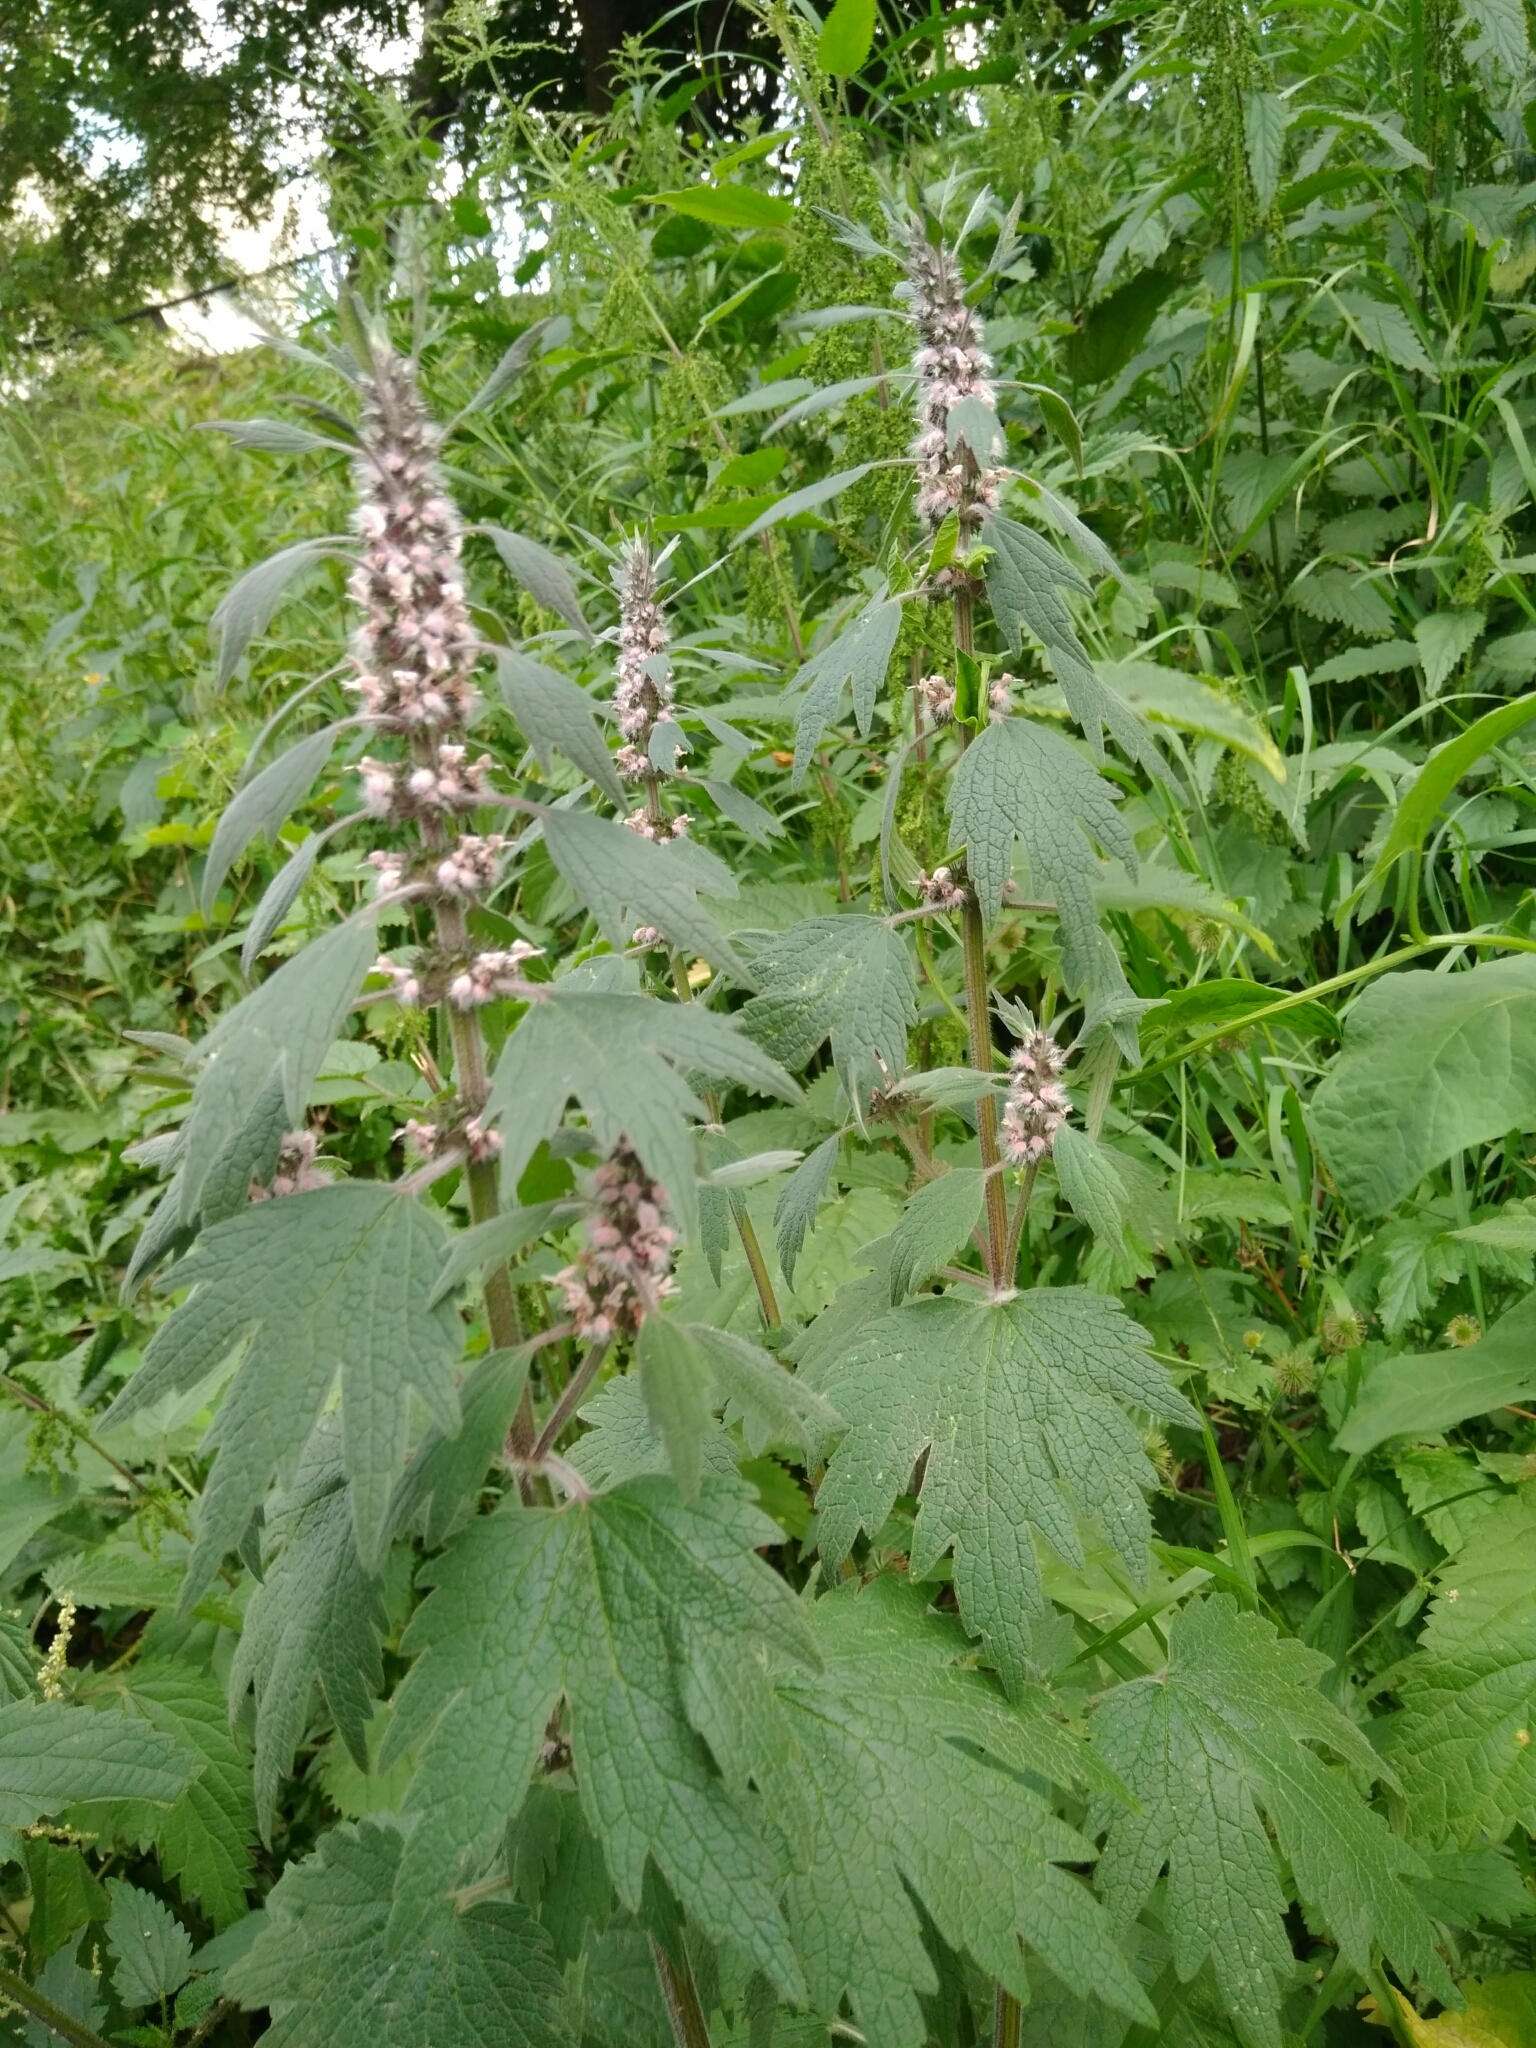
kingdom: Plantae
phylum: Tracheophyta
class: Magnoliopsida
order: Lamiales
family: Lamiaceae
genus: Leonurus
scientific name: Leonurus quinquelobatus
